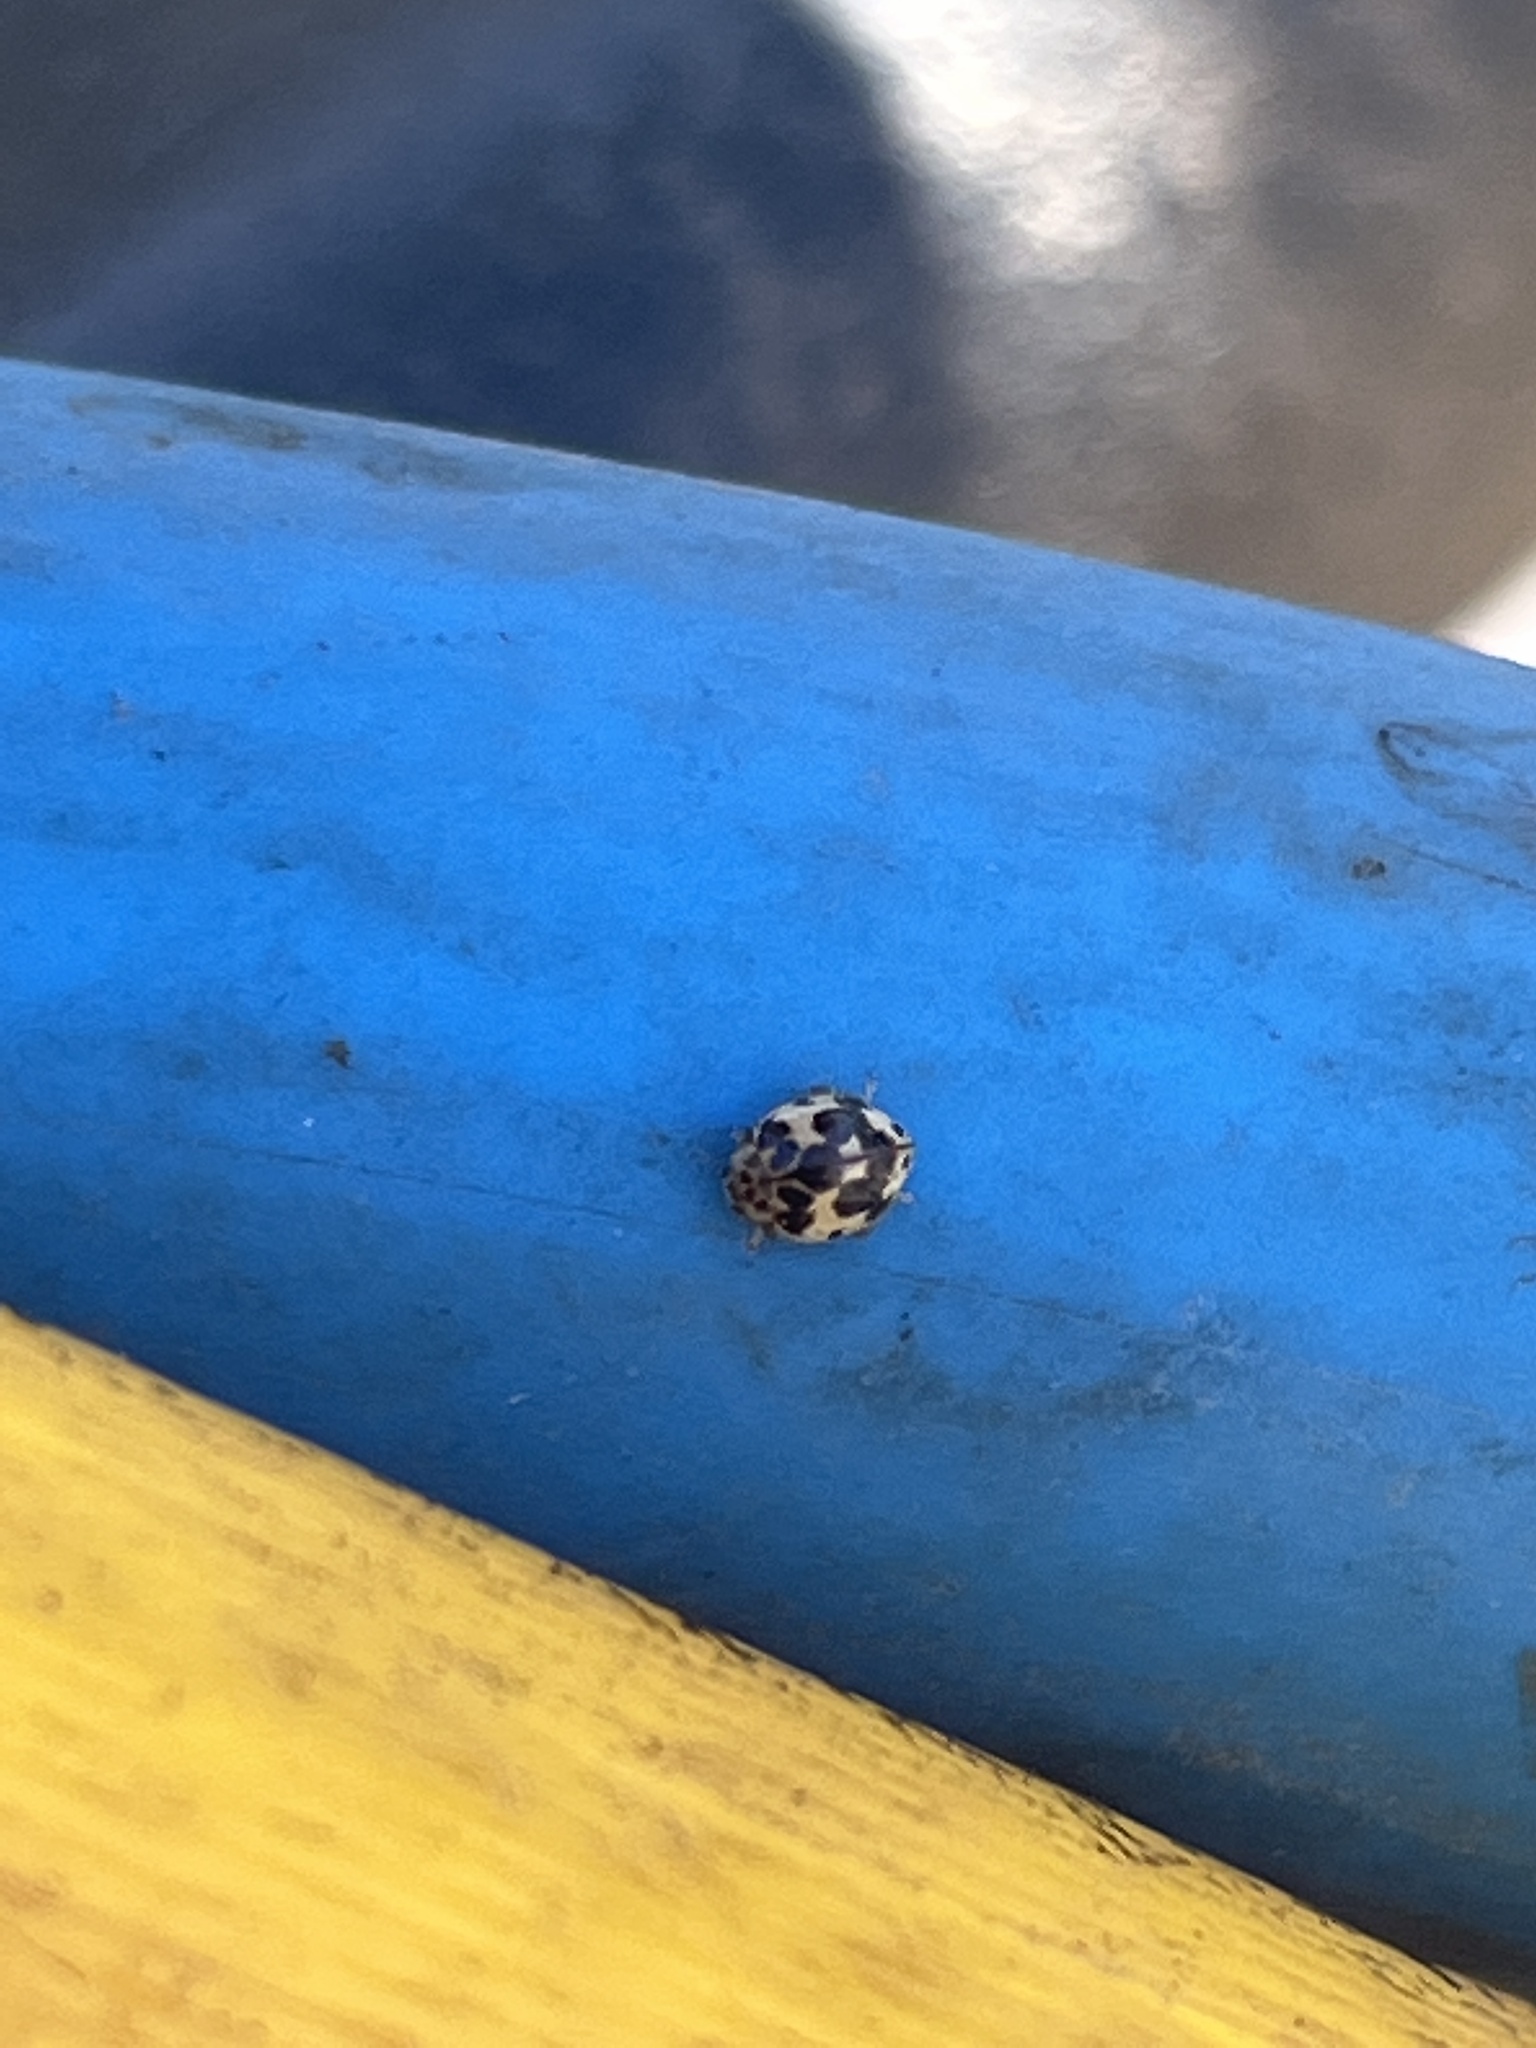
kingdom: Animalia
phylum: Arthropoda
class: Insecta
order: Coleoptera
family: Coccinellidae
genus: Psyllobora
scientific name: Psyllobora borealis
